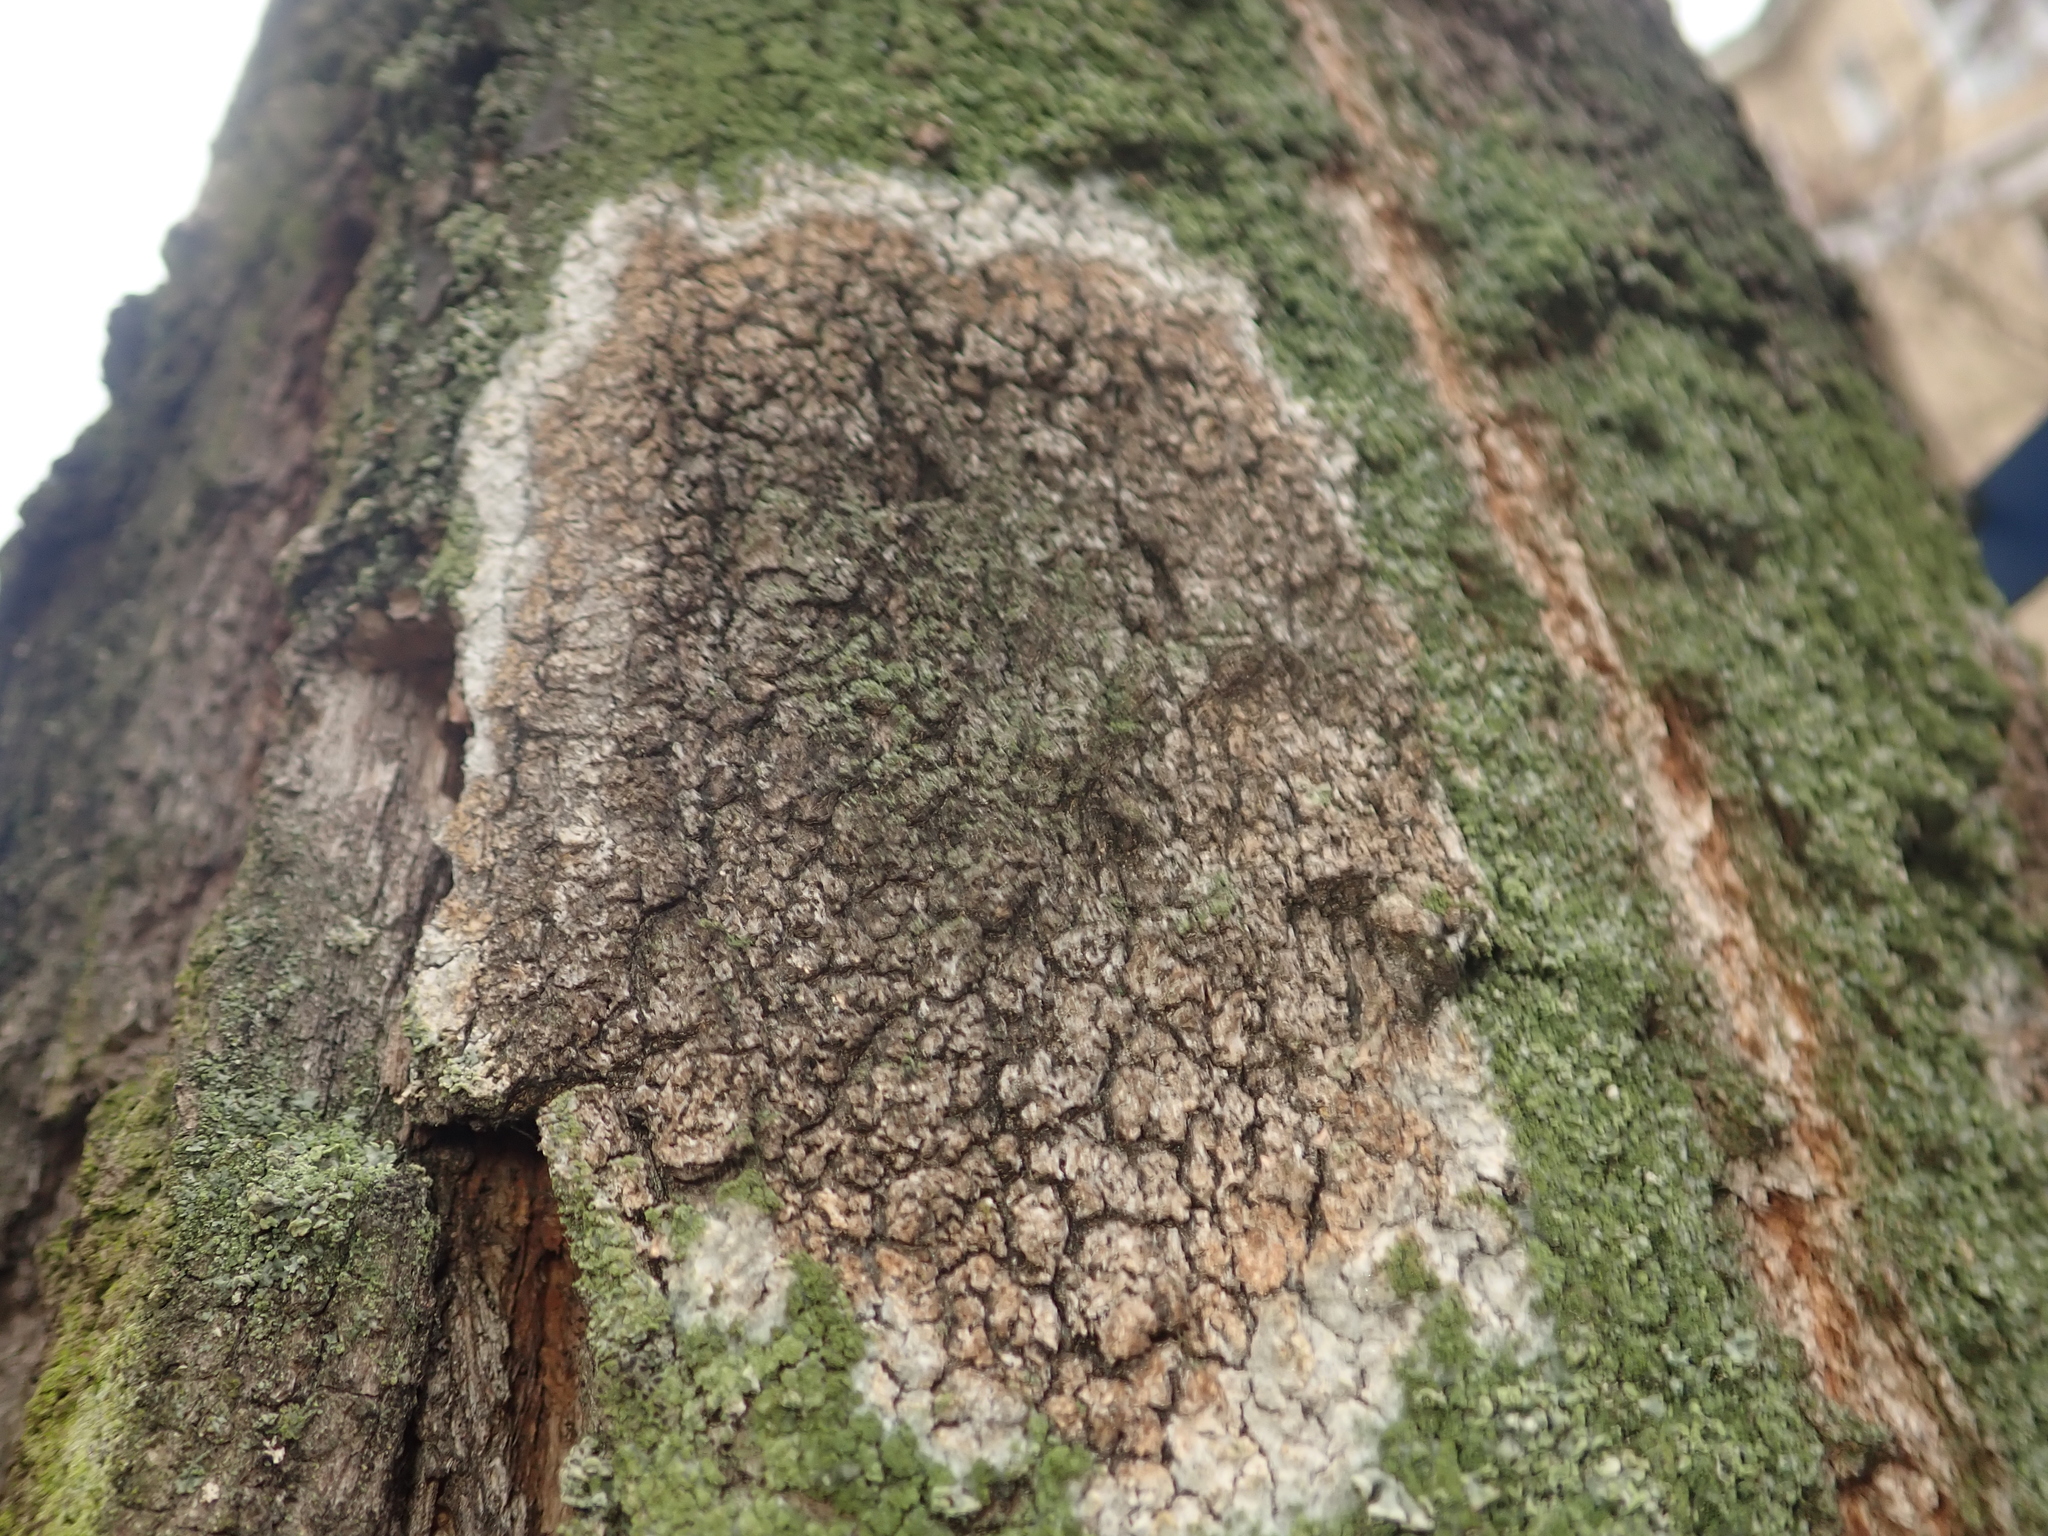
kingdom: Fungi
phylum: Basidiomycota
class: Agaricomycetes
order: Atheliales
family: Atheliaceae
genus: Athelia
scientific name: Athelia arachnoidea
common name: Candelabra duster
